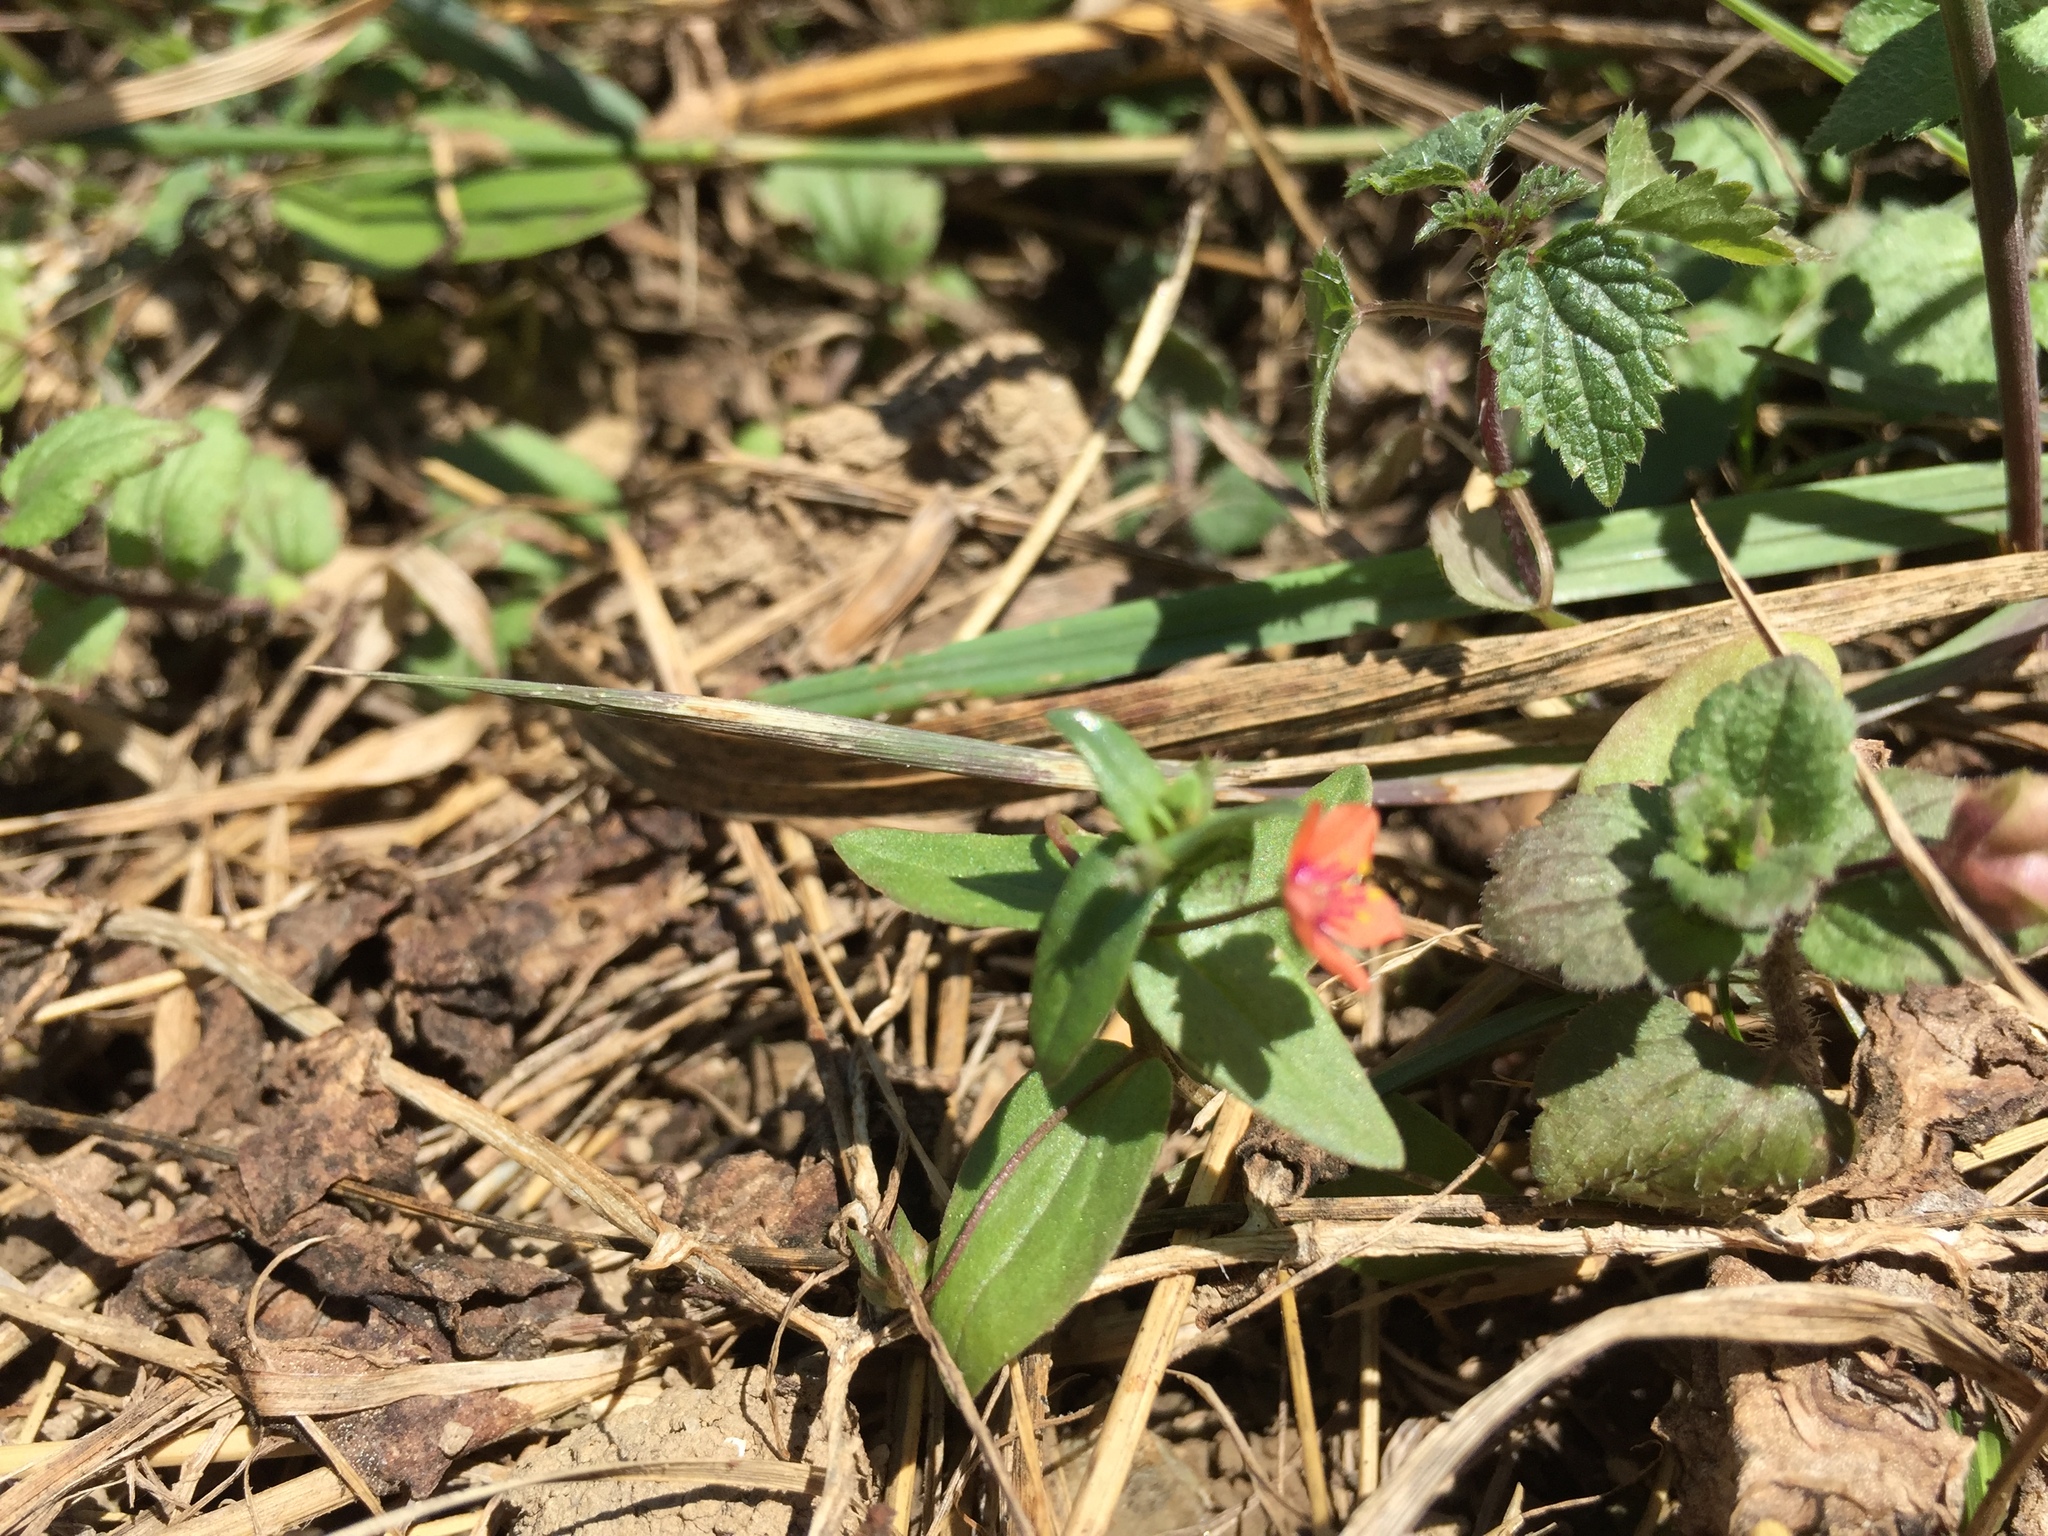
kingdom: Plantae
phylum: Tracheophyta
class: Magnoliopsida
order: Ericales
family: Primulaceae
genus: Lysimachia
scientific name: Lysimachia arvensis
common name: Scarlet pimpernel
